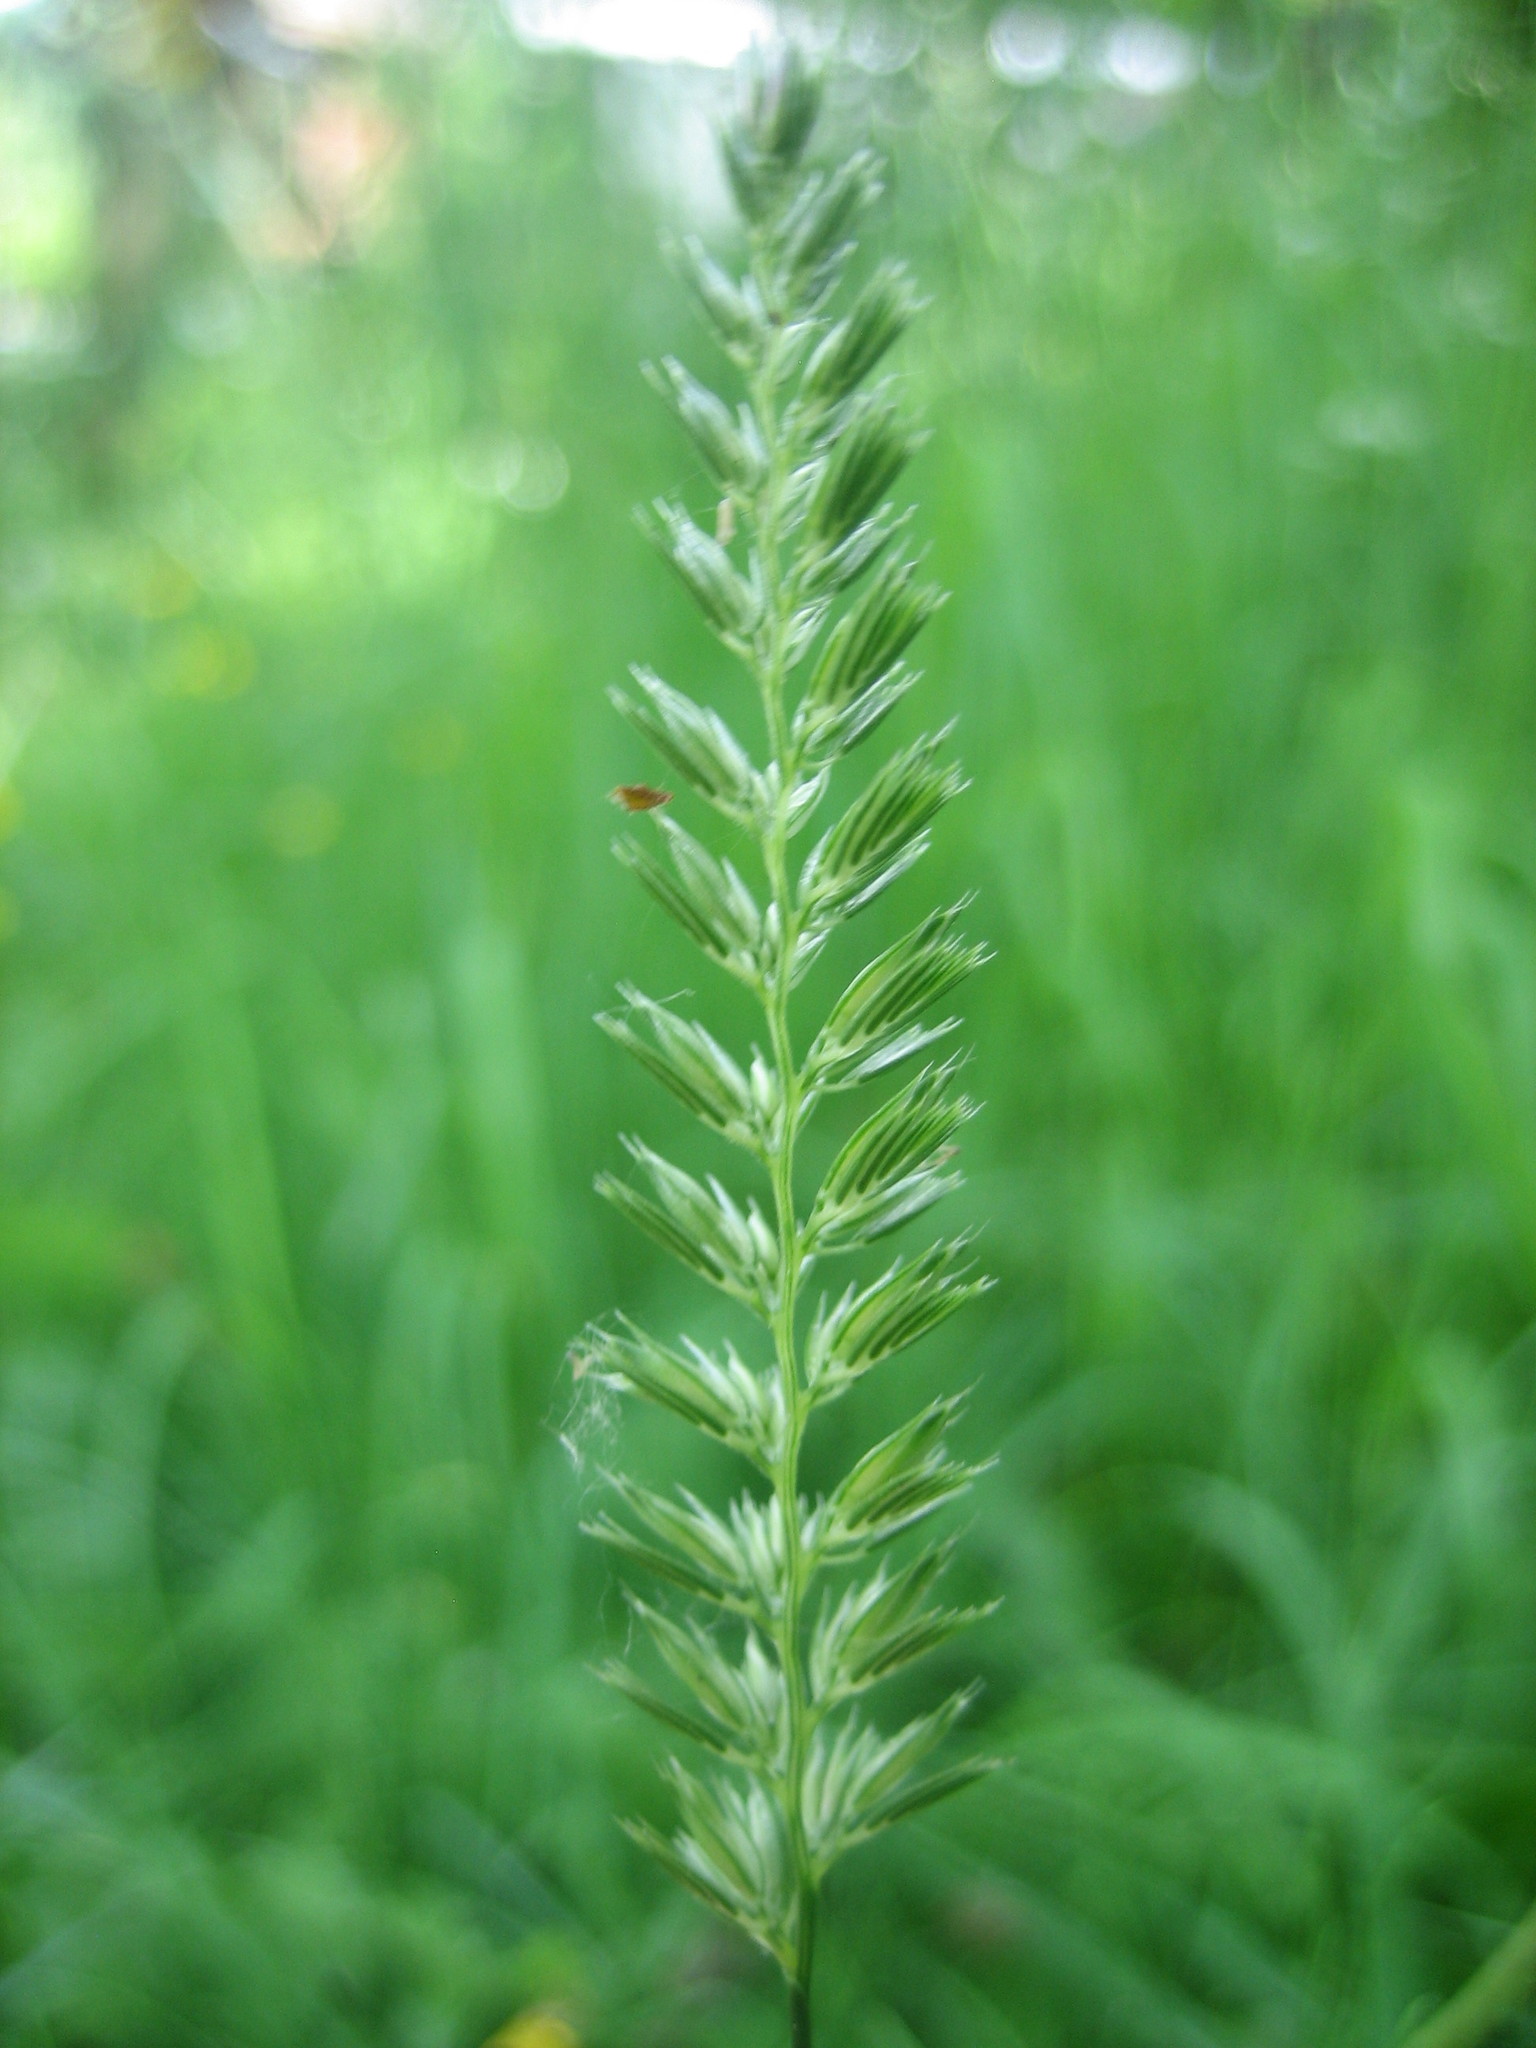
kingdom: Plantae
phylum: Tracheophyta
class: Liliopsida
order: Poales
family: Poaceae
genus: Cynosurus
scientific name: Cynosurus cristatus
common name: Crested dog's-tail
